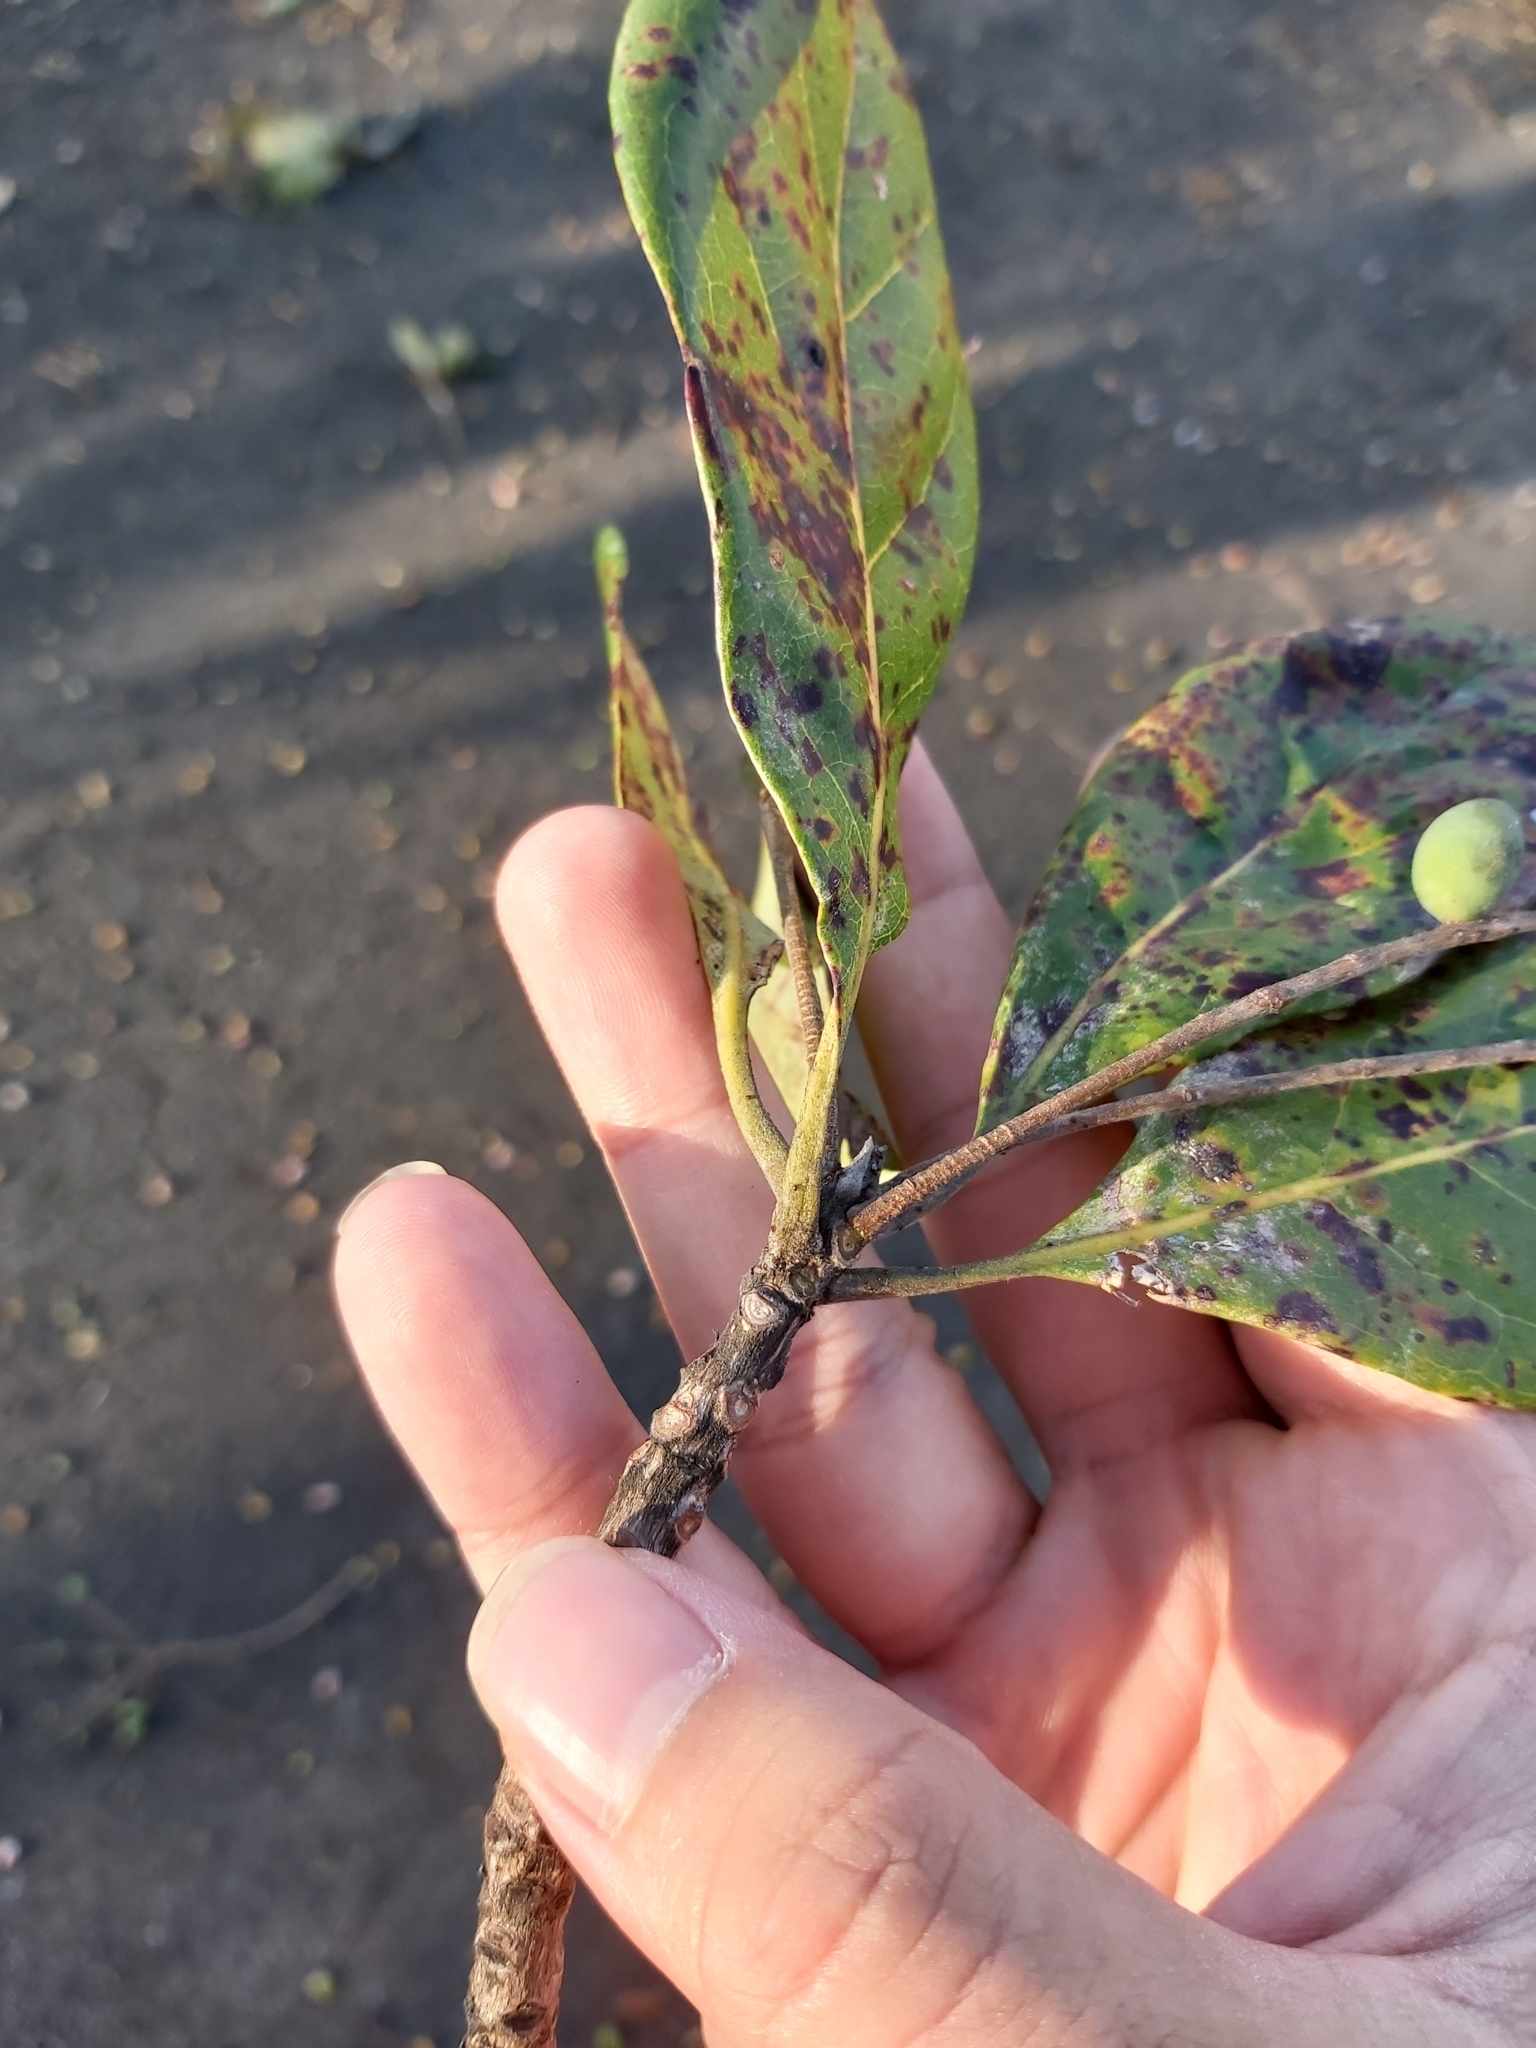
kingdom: Plantae
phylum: Tracheophyta
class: Magnoliopsida
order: Myrtales
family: Combretaceae
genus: Terminalia
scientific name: Terminalia muelleri
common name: Australian almond
